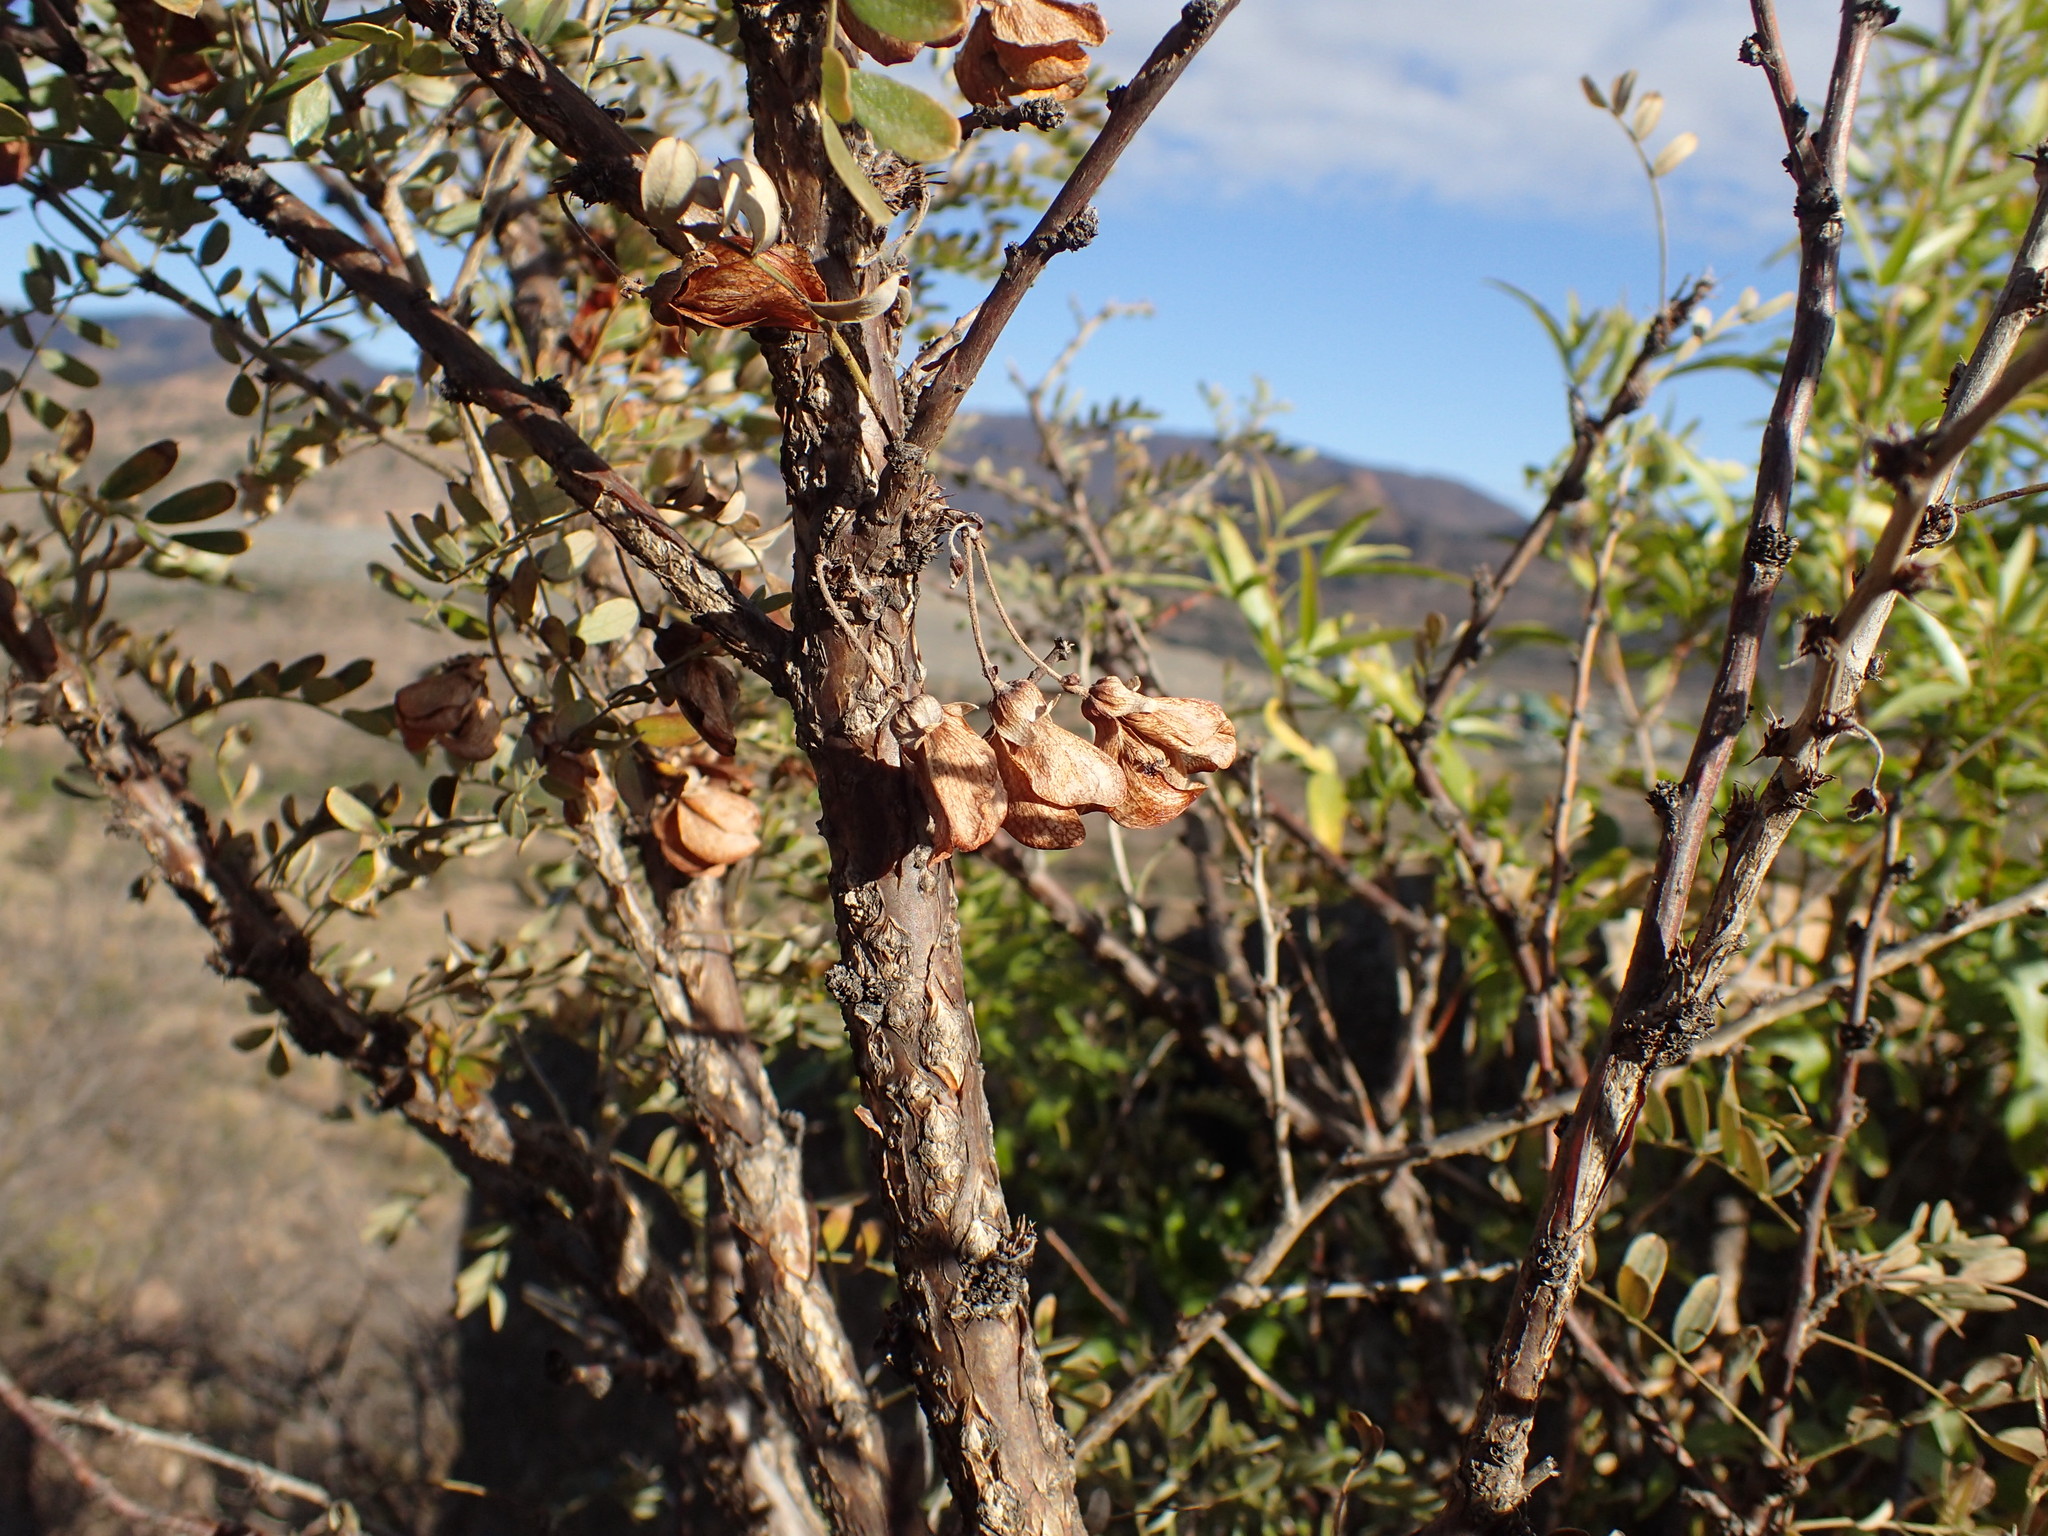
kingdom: Plantae
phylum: Tracheophyta
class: Magnoliopsida
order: Fabales
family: Fabaceae
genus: Ormocarpum
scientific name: Ormocarpum kirkii
